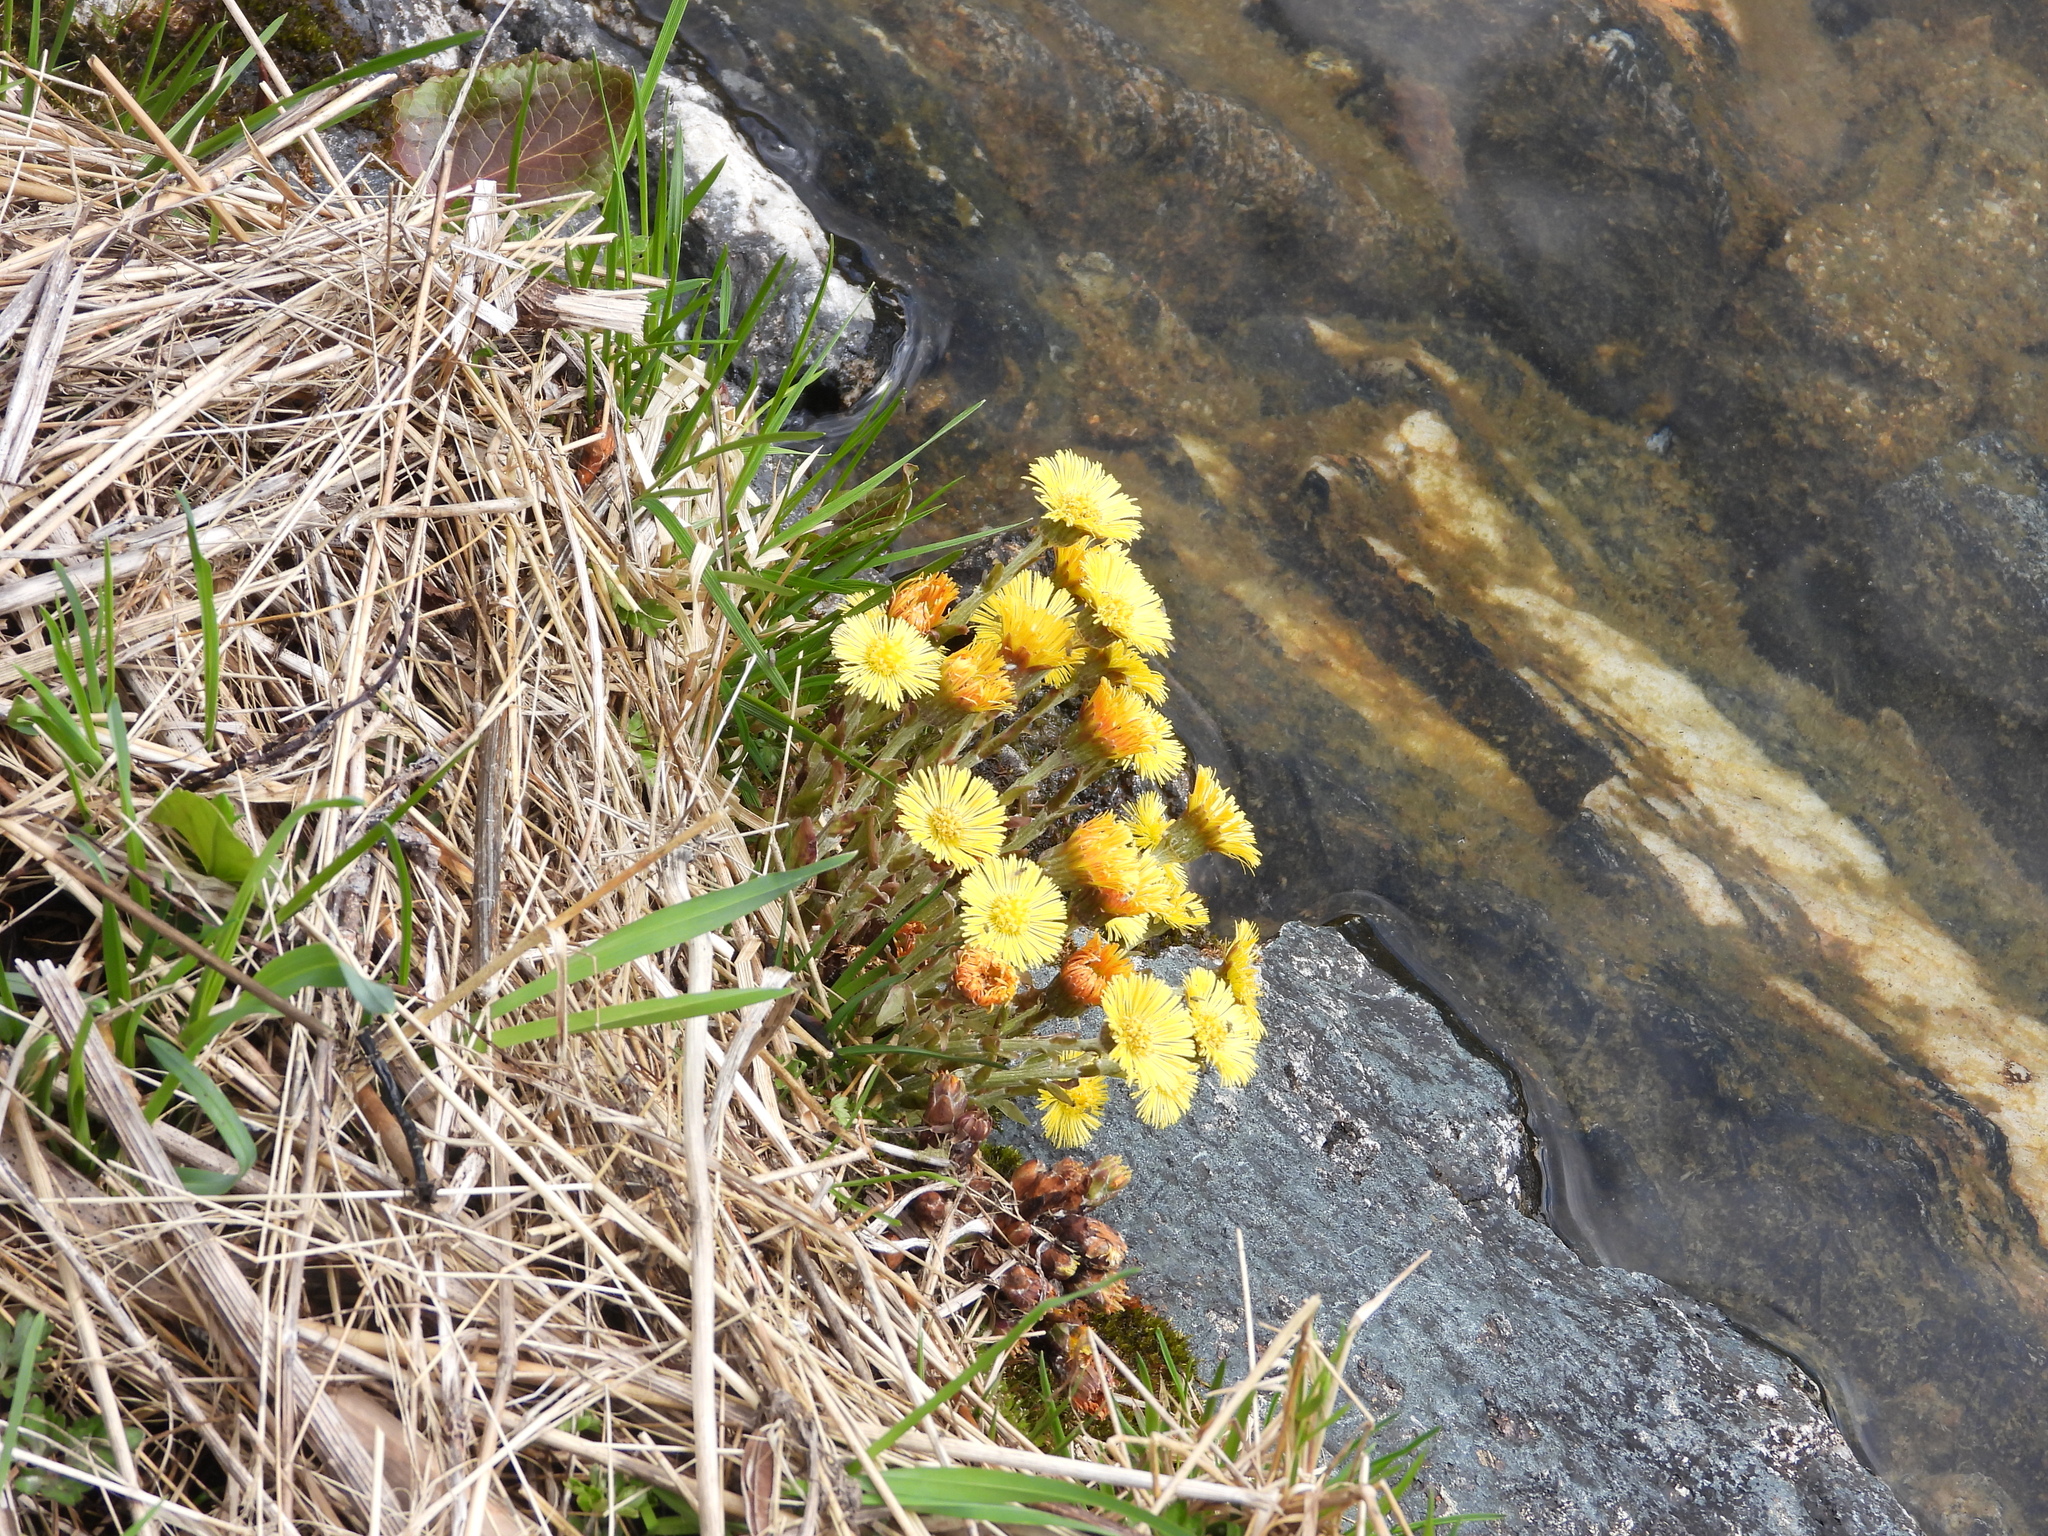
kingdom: Plantae
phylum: Tracheophyta
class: Magnoliopsida
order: Asterales
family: Asteraceae
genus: Tussilago
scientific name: Tussilago farfara
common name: Coltsfoot
